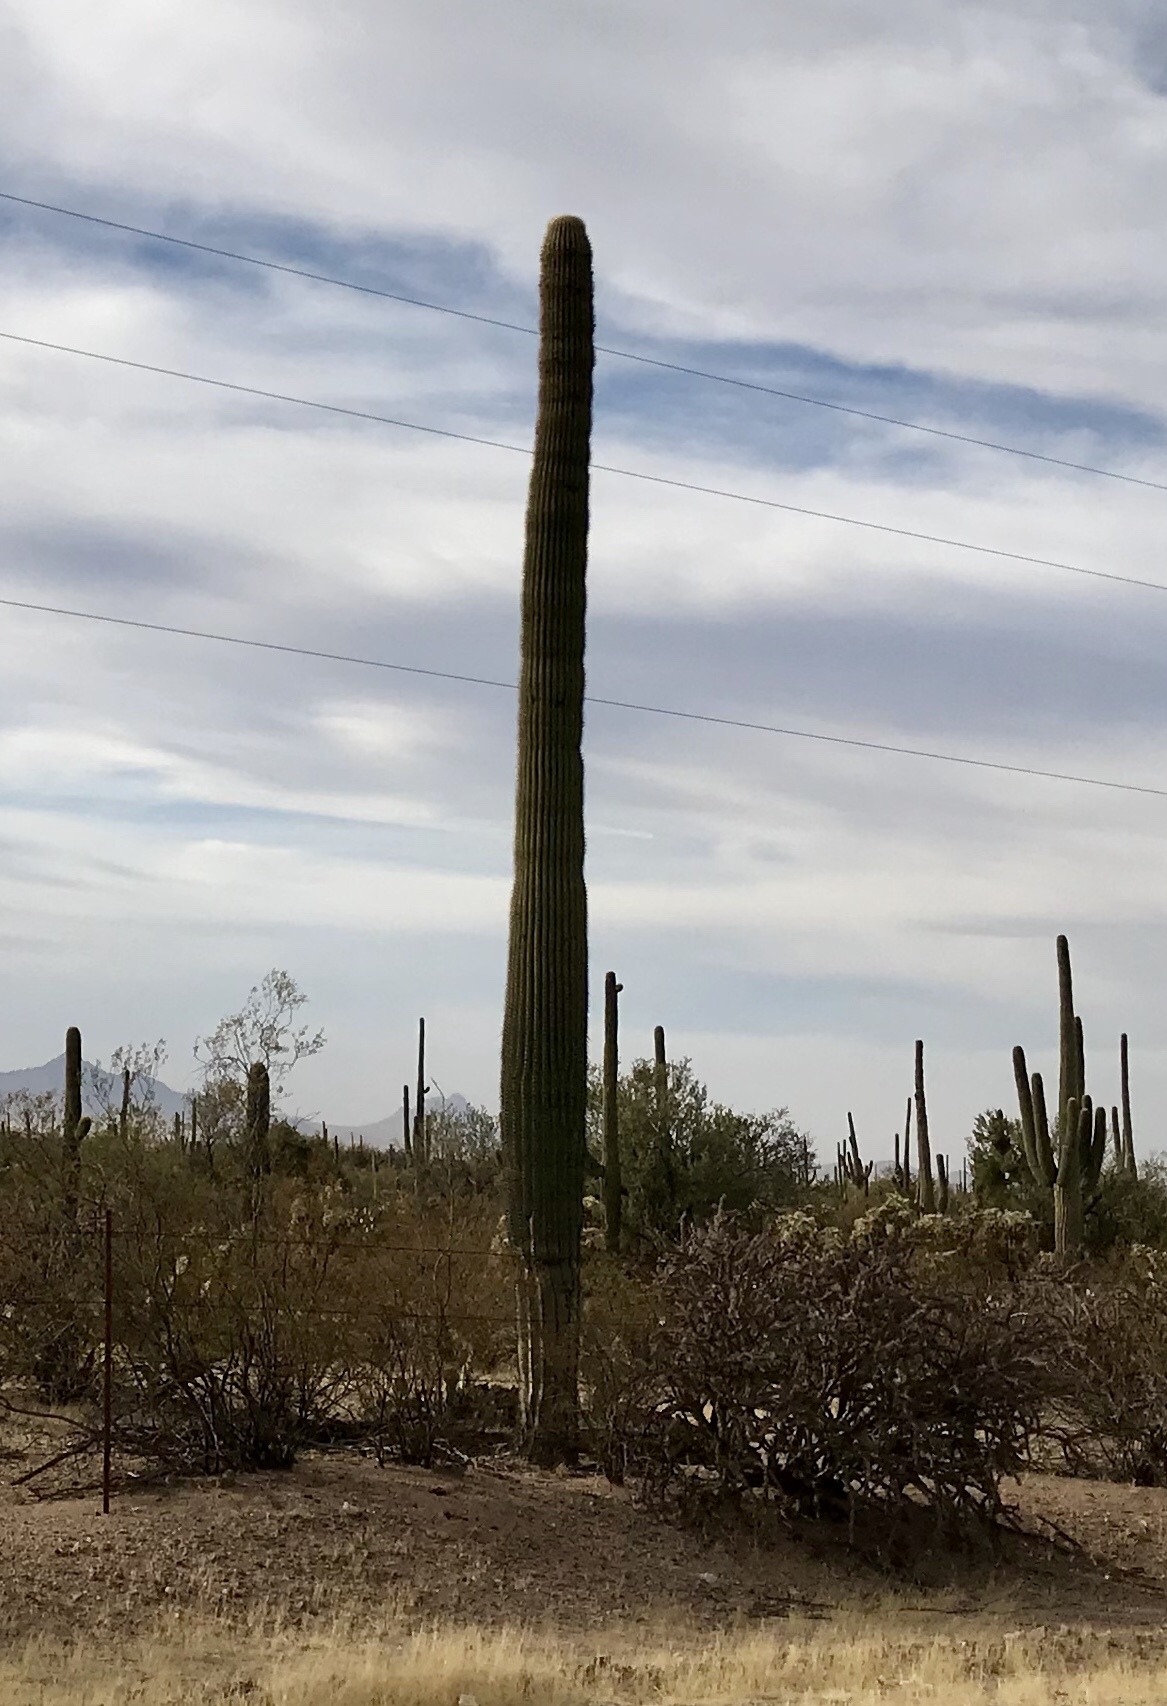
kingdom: Plantae
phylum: Tracheophyta
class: Magnoliopsida
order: Caryophyllales
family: Cactaceae
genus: Carnegiea
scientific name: Carnegiea gigantea
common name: Saguaro
